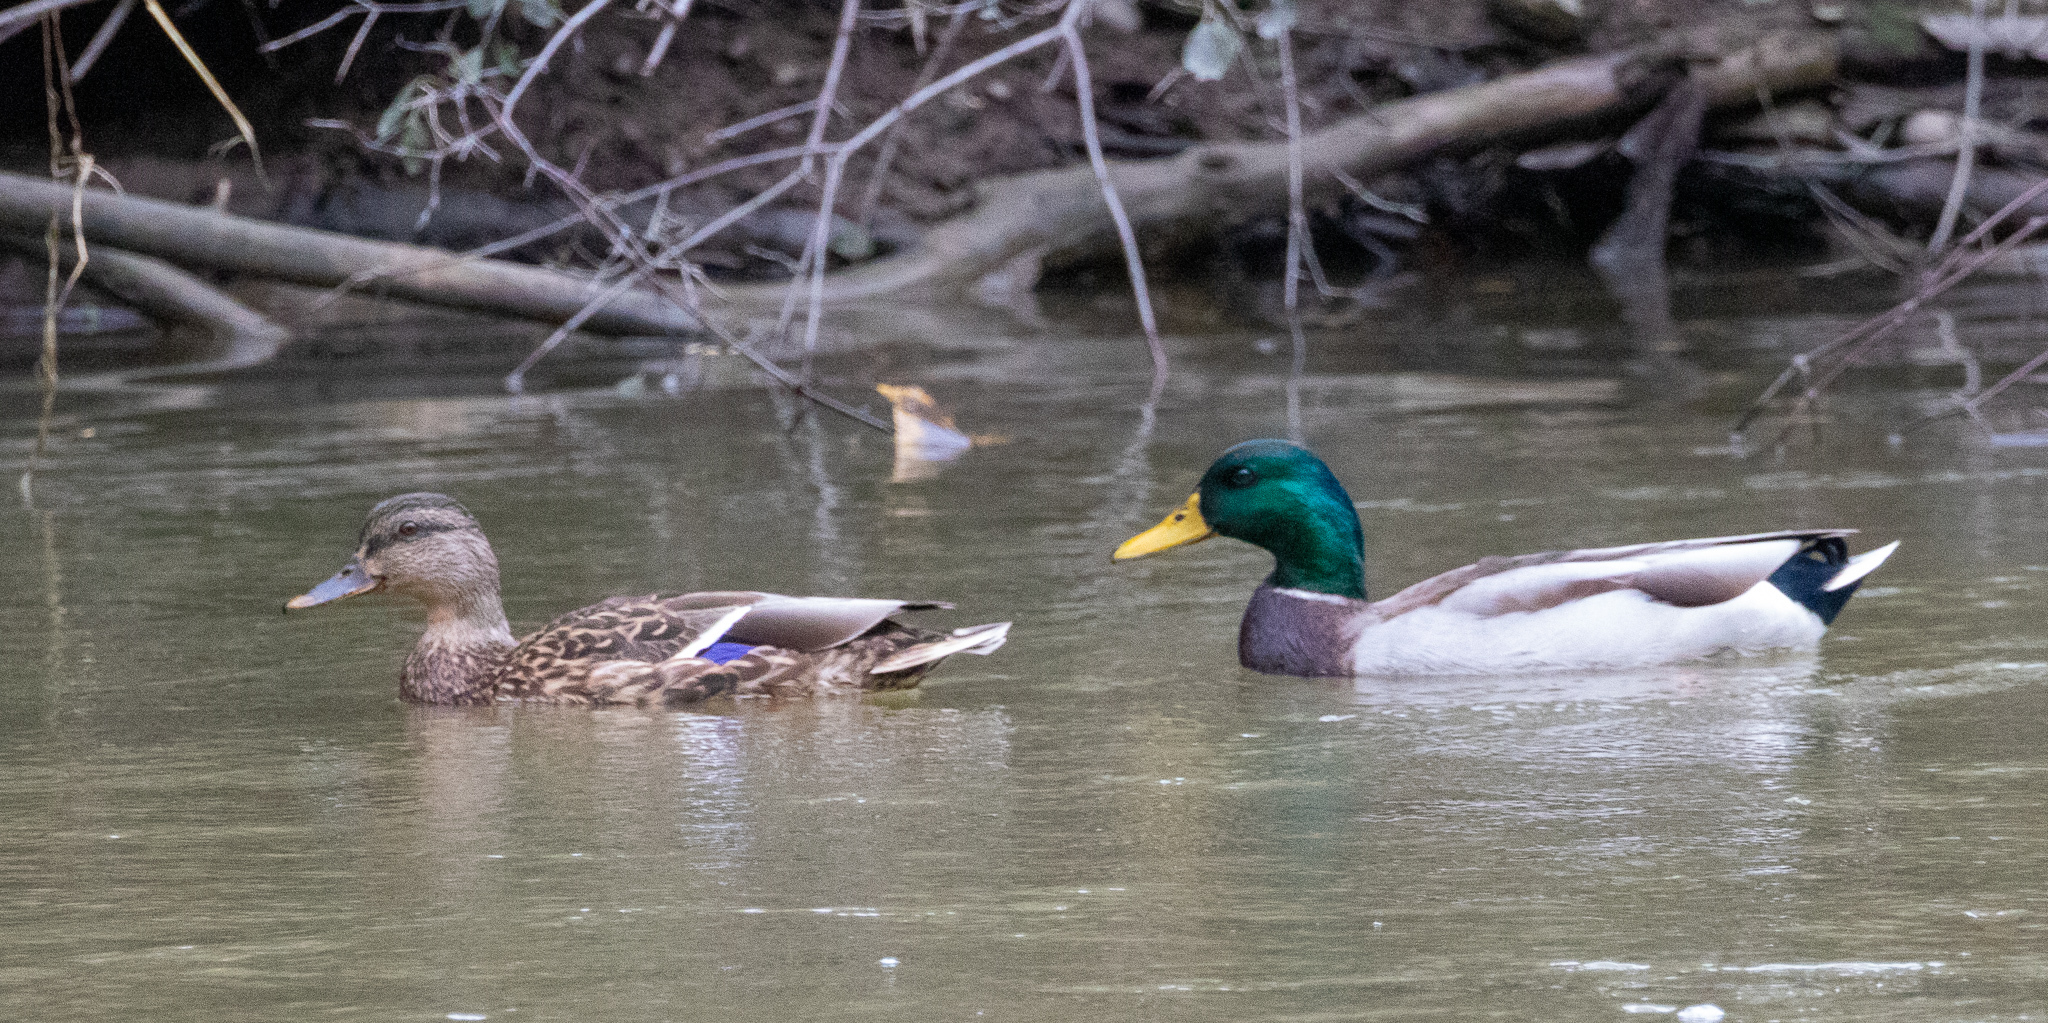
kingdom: Animalia
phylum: Chordata
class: Aves
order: Anseriformes
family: Anatidae
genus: Anas
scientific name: Anas platyrhynchos
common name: Mallard
